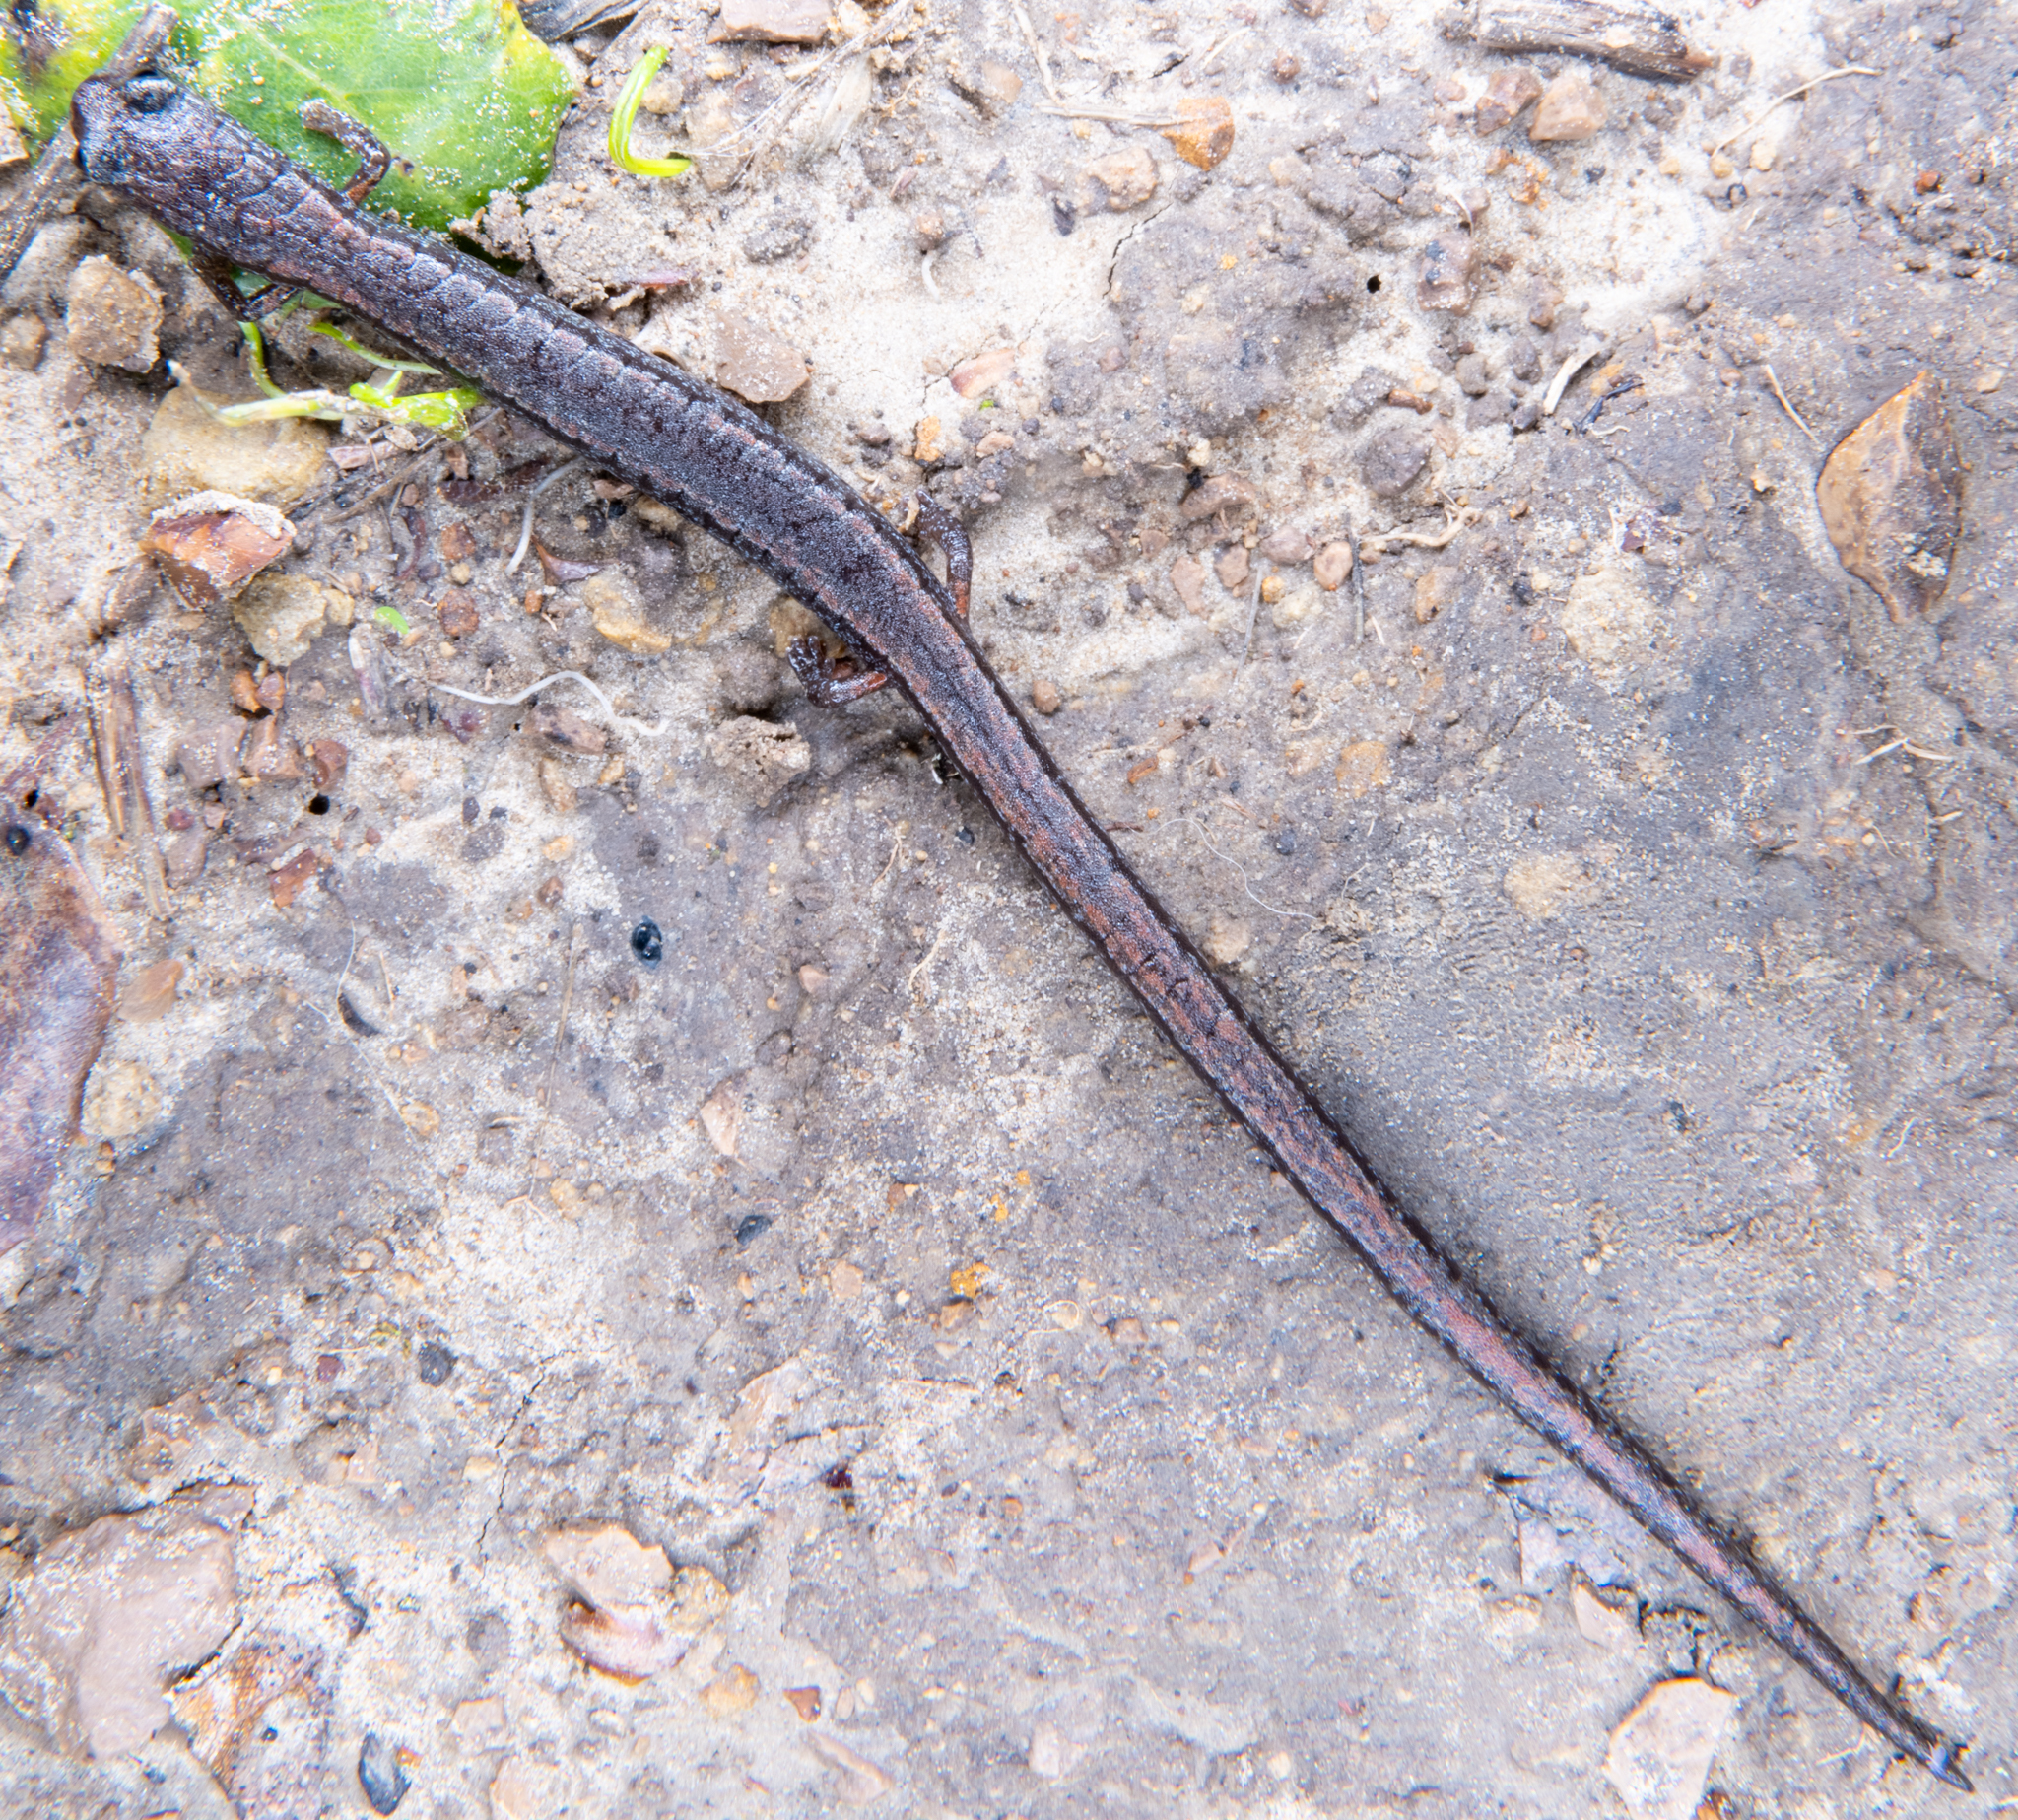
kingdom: Animalia
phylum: Chordata
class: Amphibia
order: Caudata
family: Plethodontidae
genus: Batrachoseps
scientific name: Batrachoseps attenuatus
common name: California slender salamander
